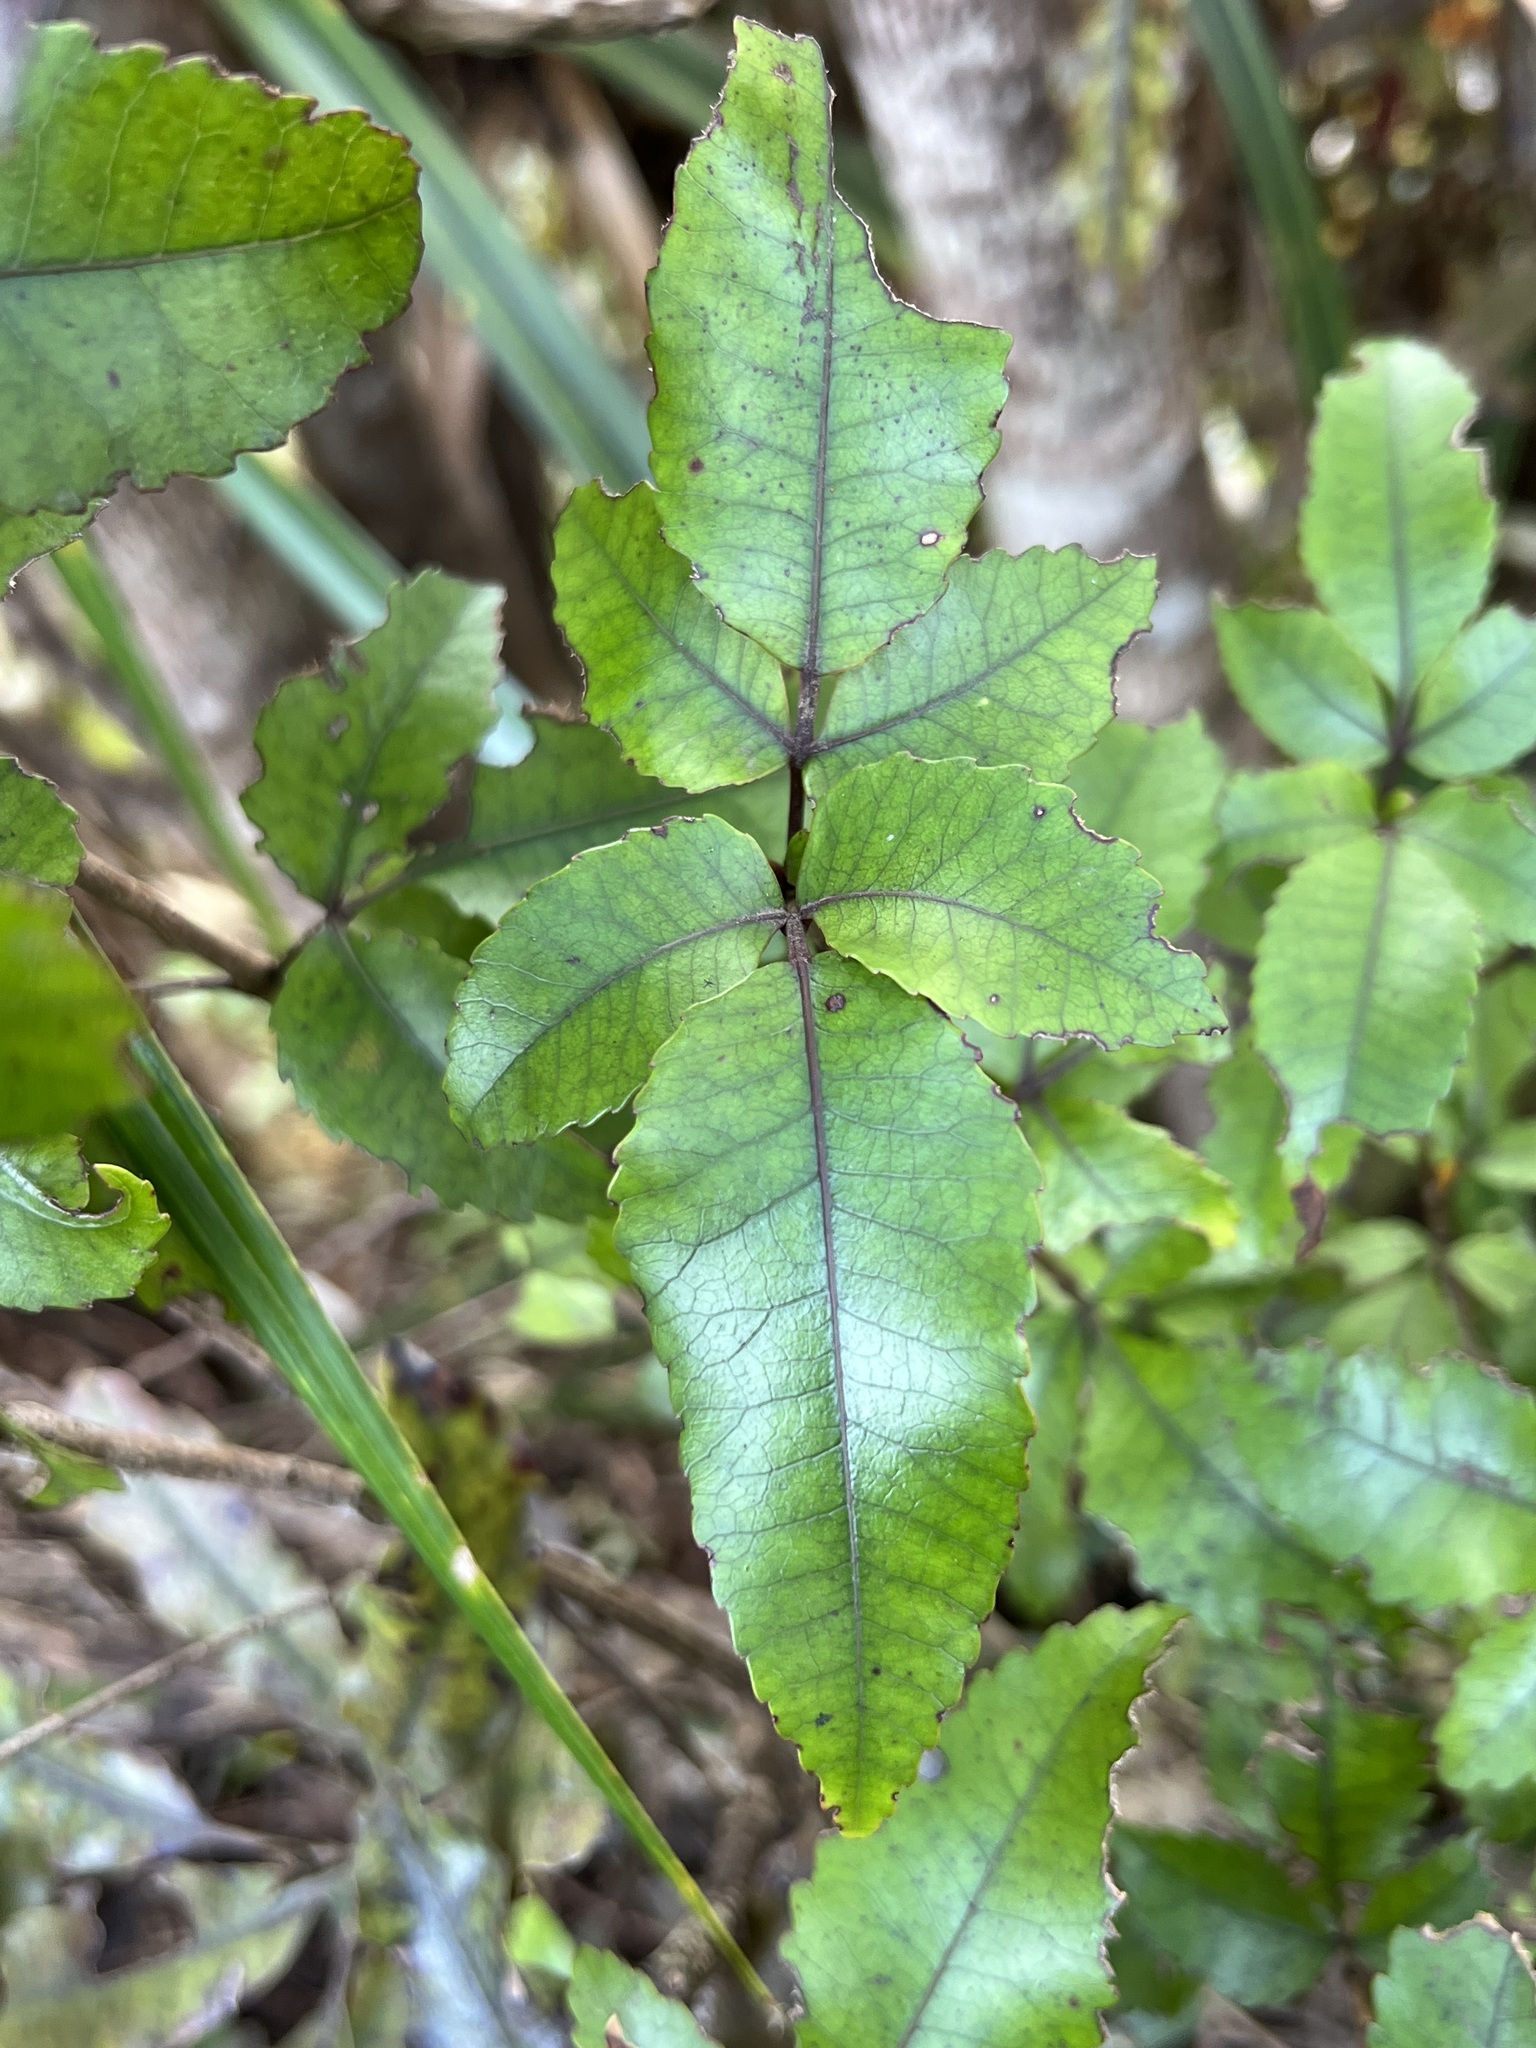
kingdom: Plantae
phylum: Tracheophyta
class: Magnoliopsida
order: Oxalidales
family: Cunoniaceae
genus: Pterophylla
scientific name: Pterophylla racemosa
